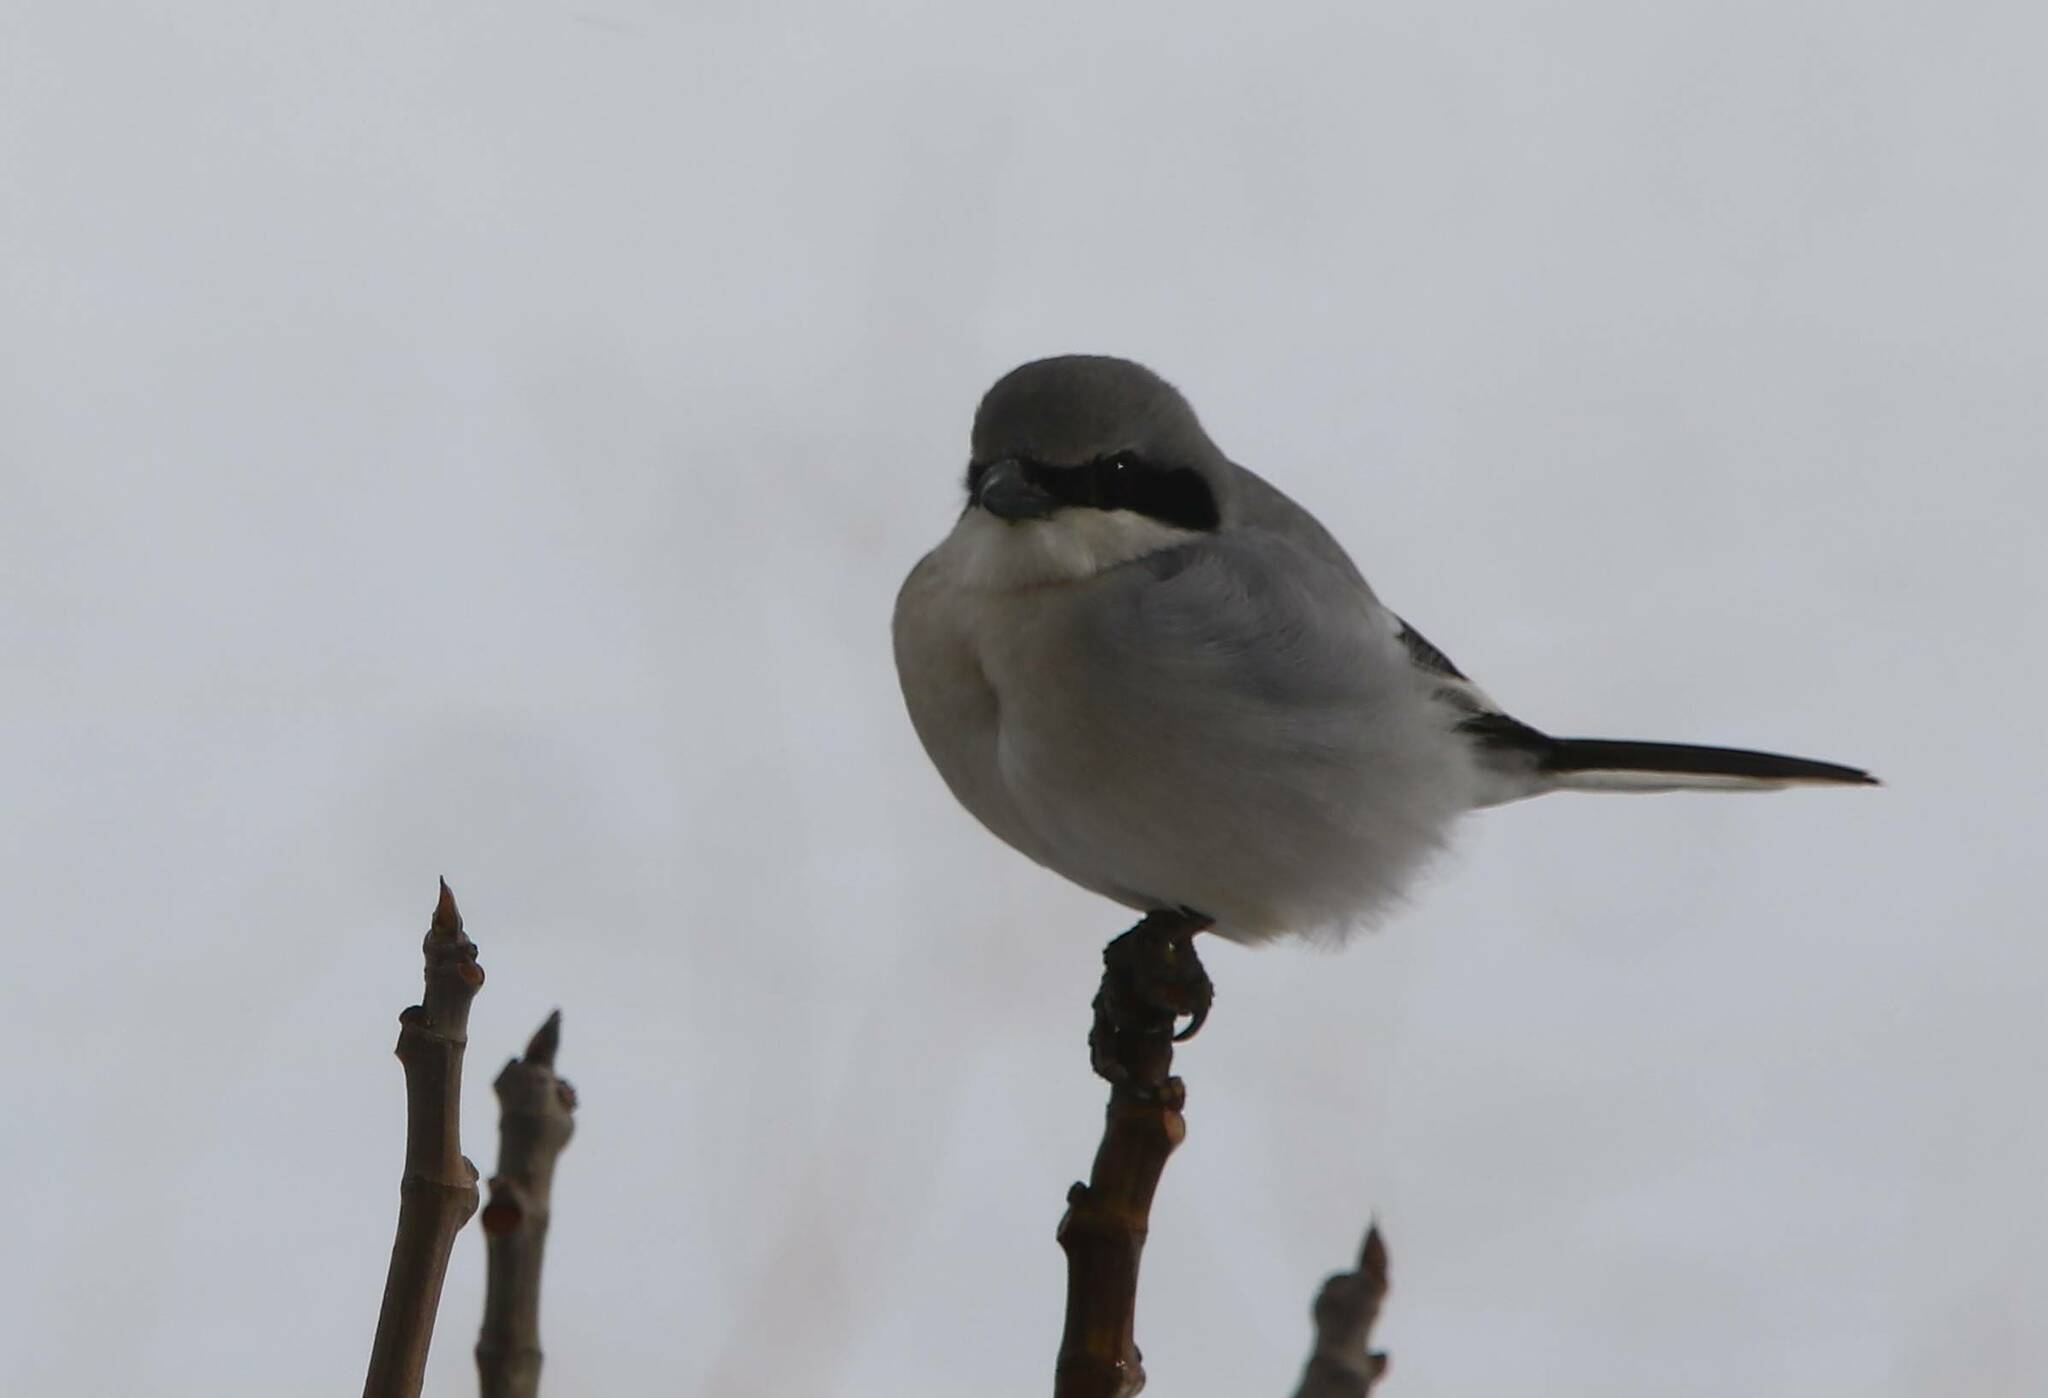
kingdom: Animalia
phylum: Chordata
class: Aves
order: Passeriformes
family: Laniidae
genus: Lanius
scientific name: Lanius excubitor
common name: Great grey shrike
